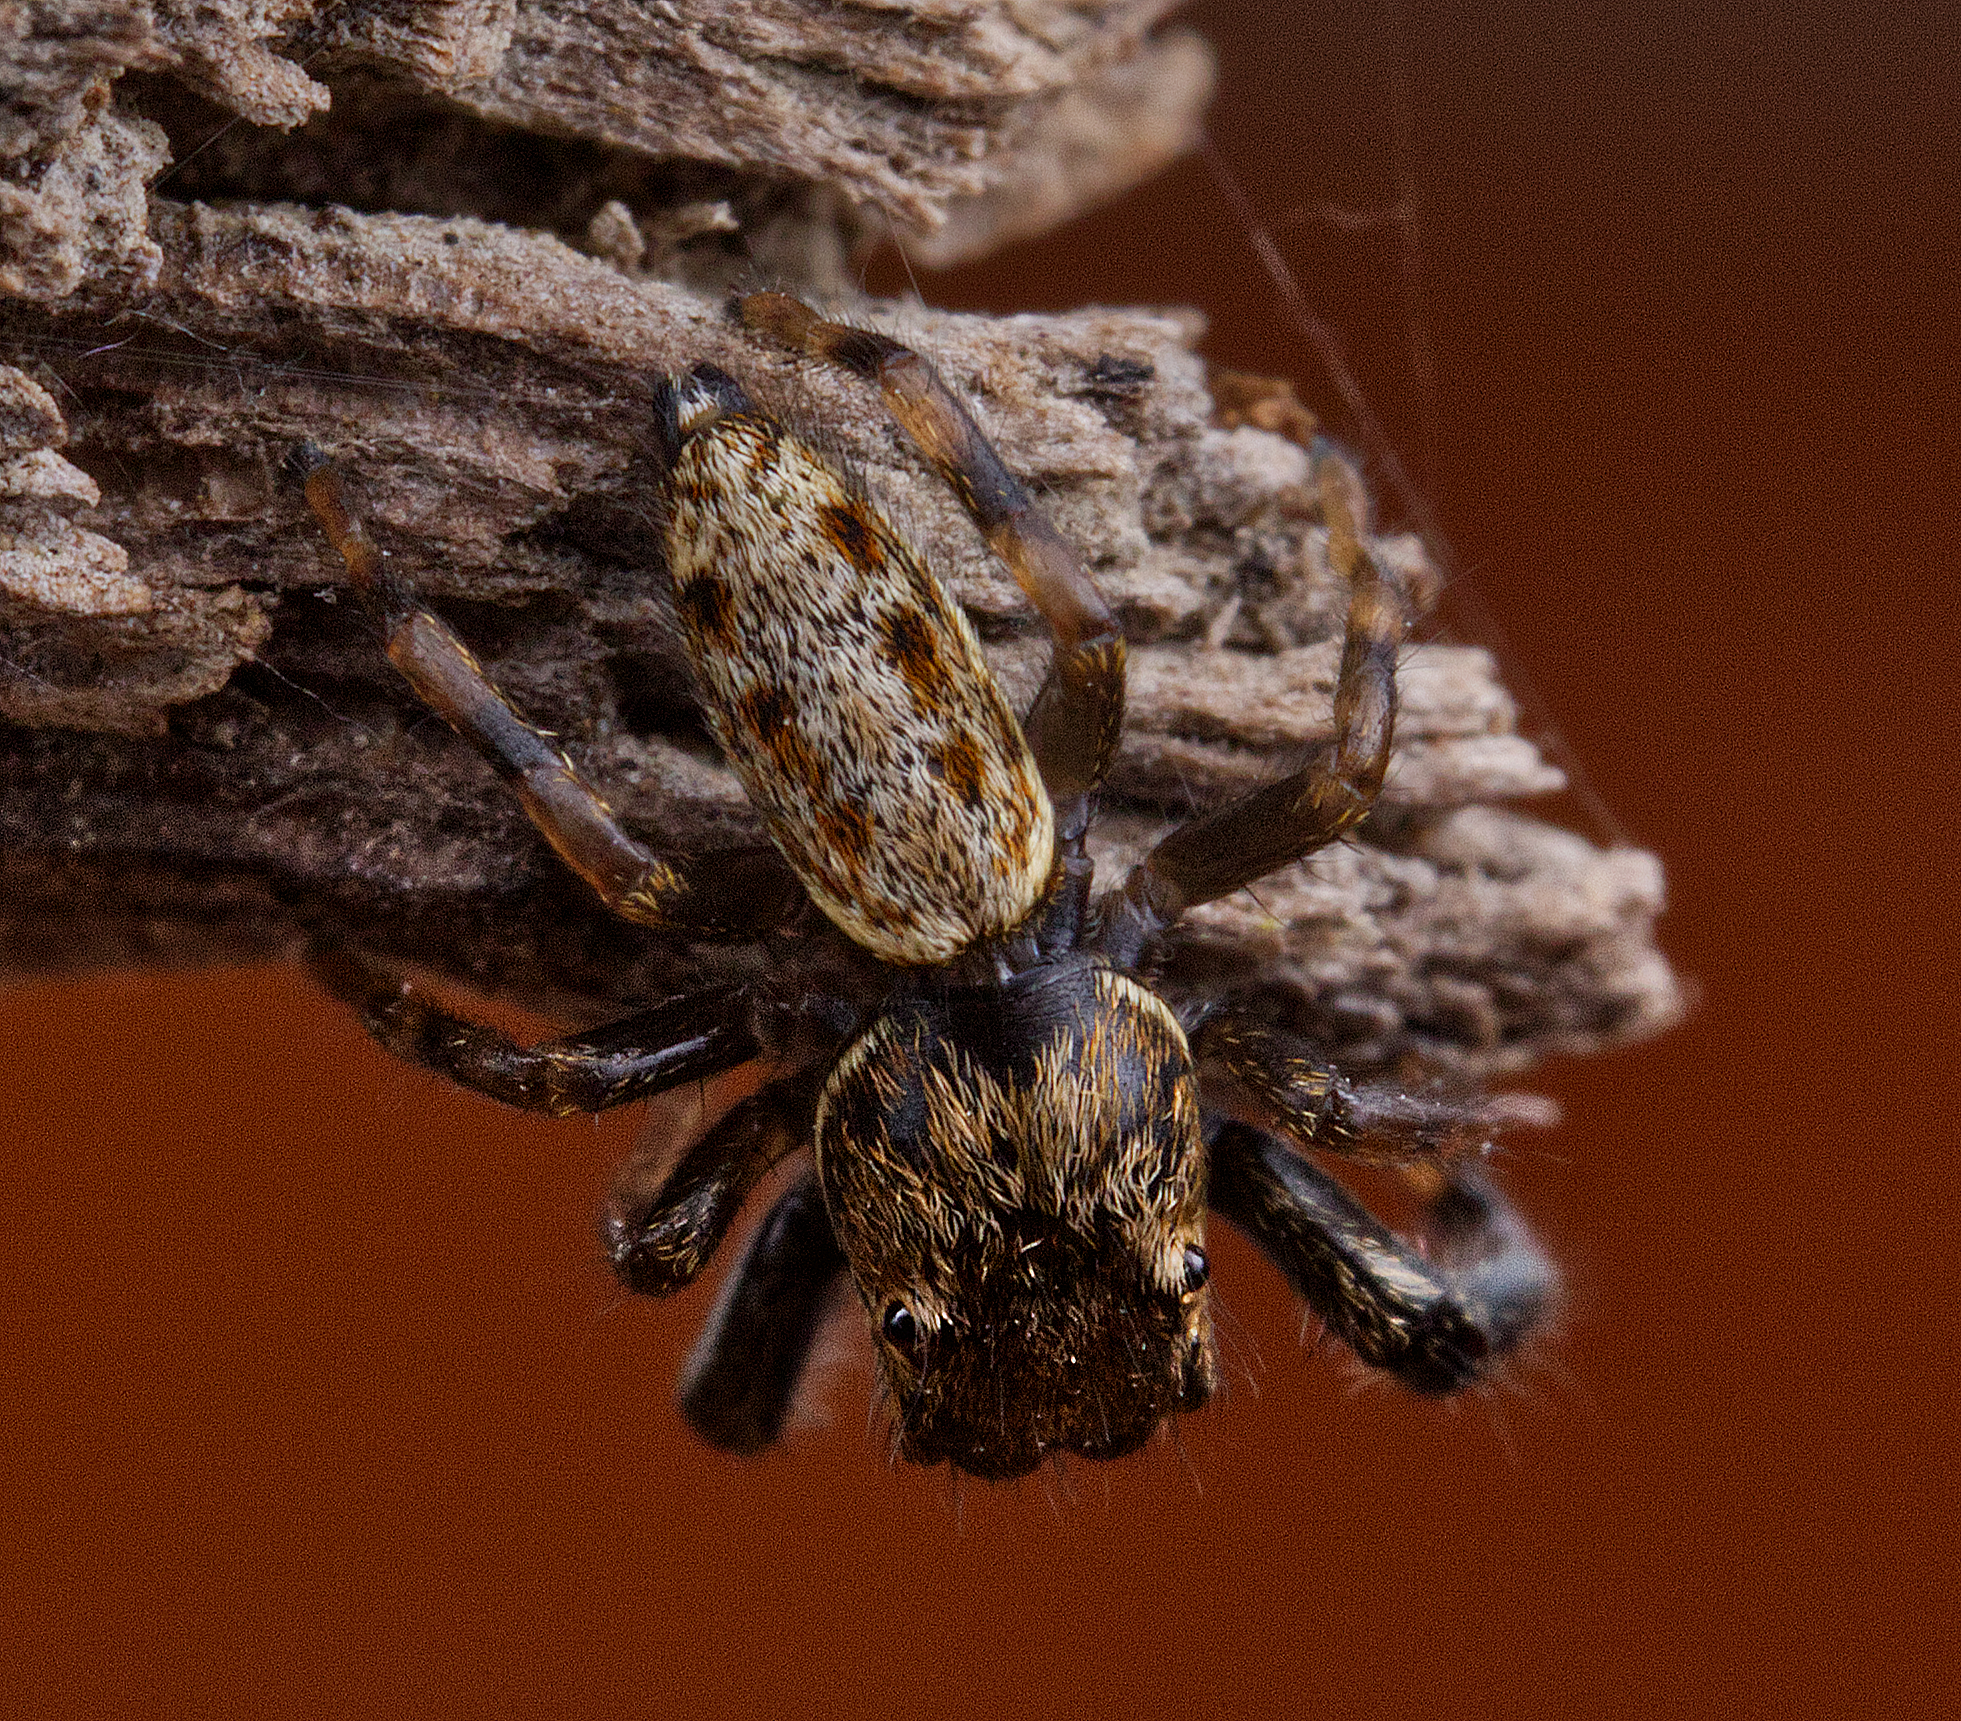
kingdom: Animalia
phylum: Arthropoda
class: Arachnida
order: Araneae
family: Salticidae
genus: Marpissa
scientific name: Marpissa formosa
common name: Short-bellied slender jumping spider
